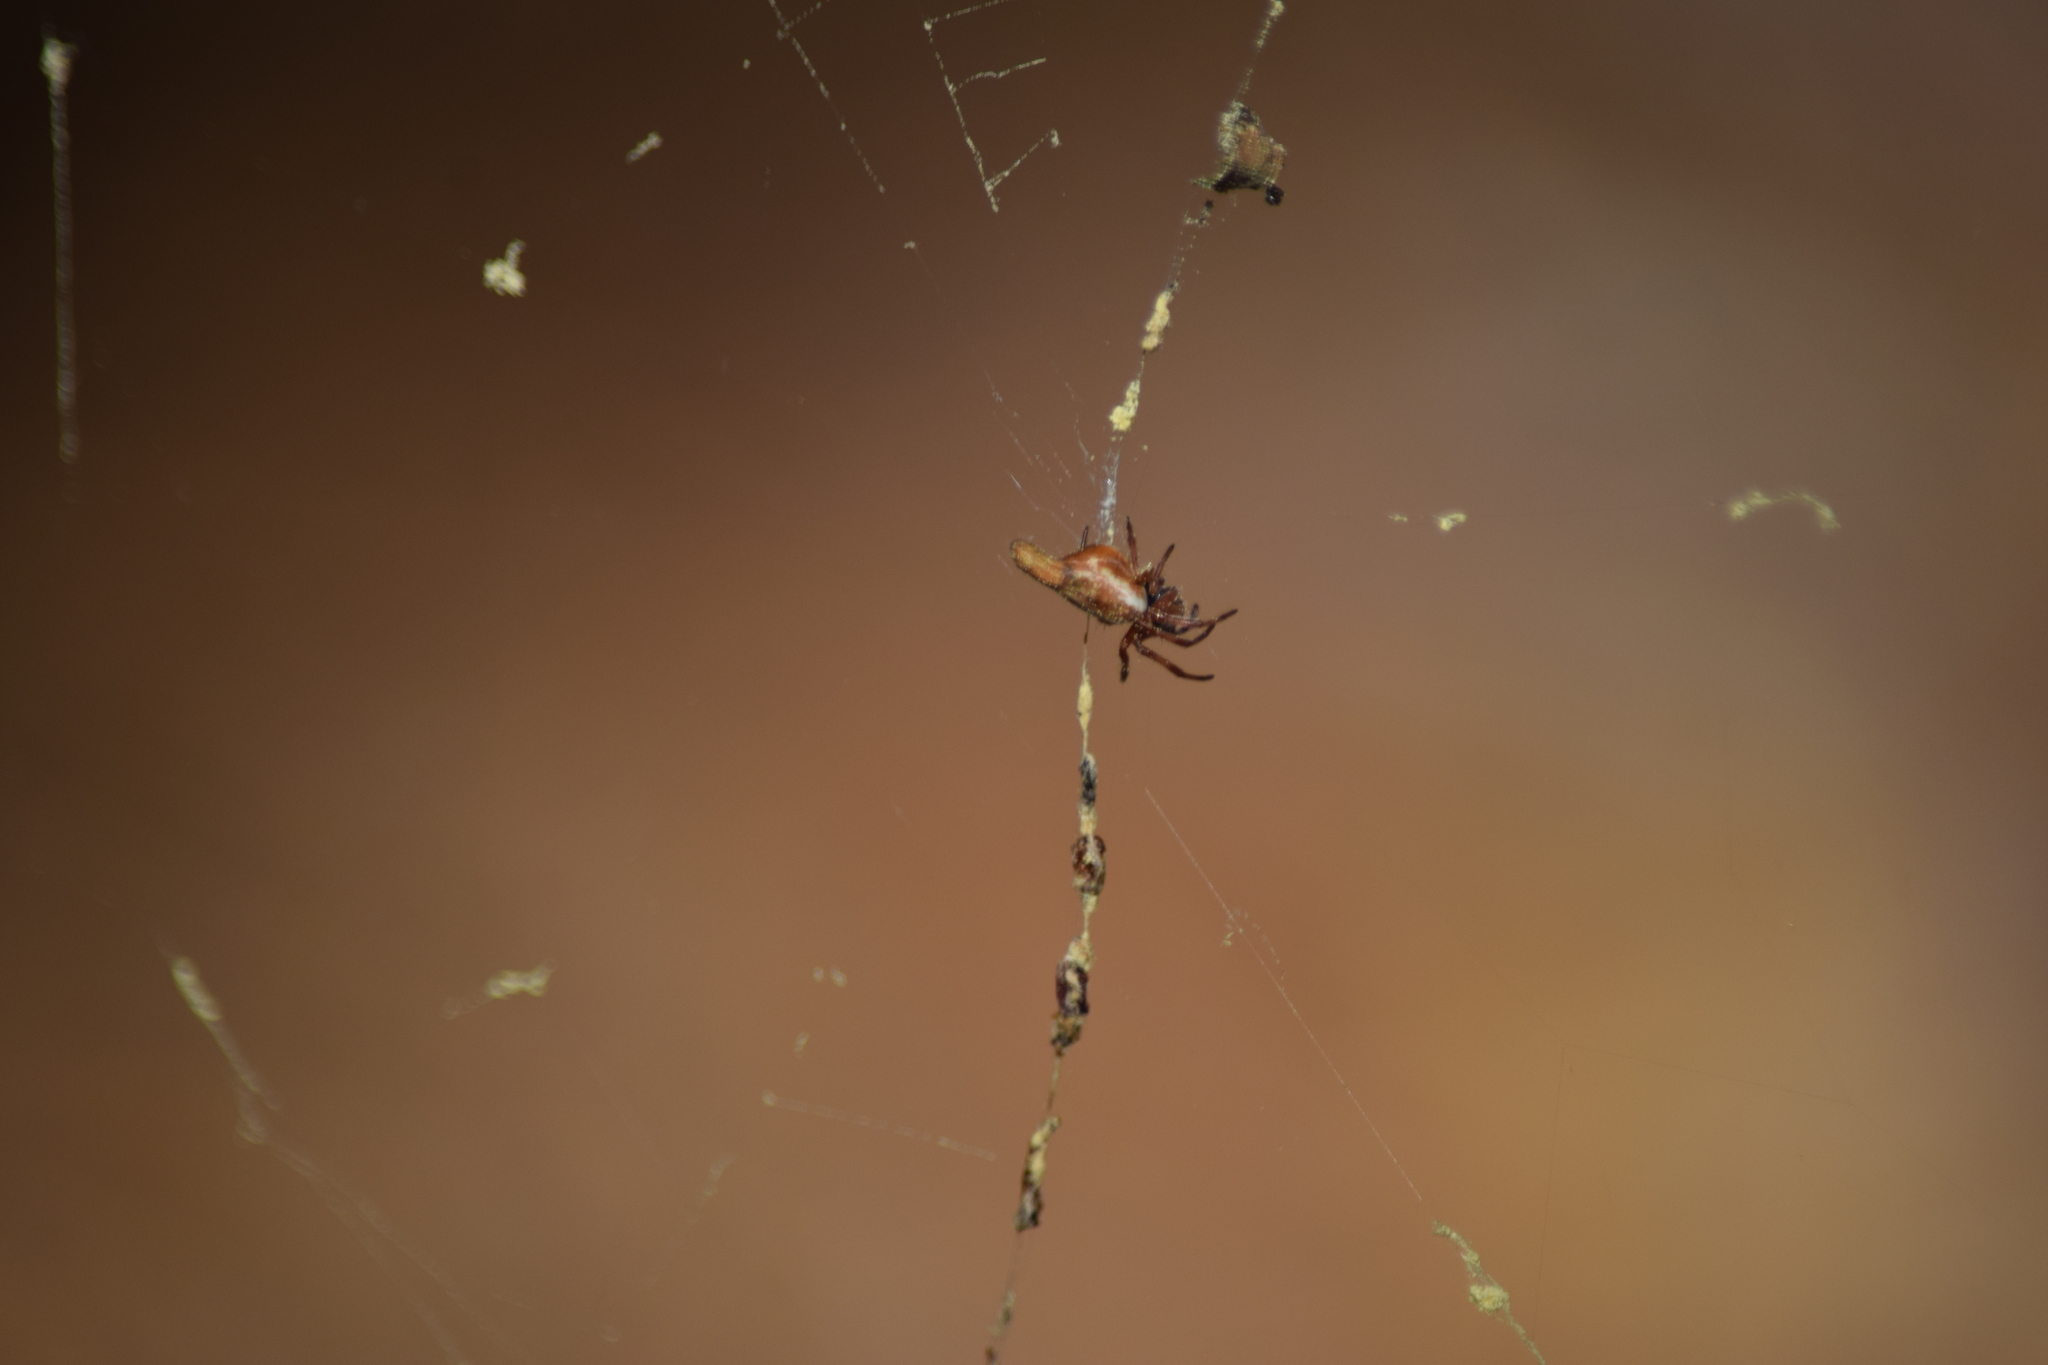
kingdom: Animalia
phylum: Arthropoda
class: Arachnida
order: Araneae
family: Araneidae
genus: Cyclosa
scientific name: Cyclosa
